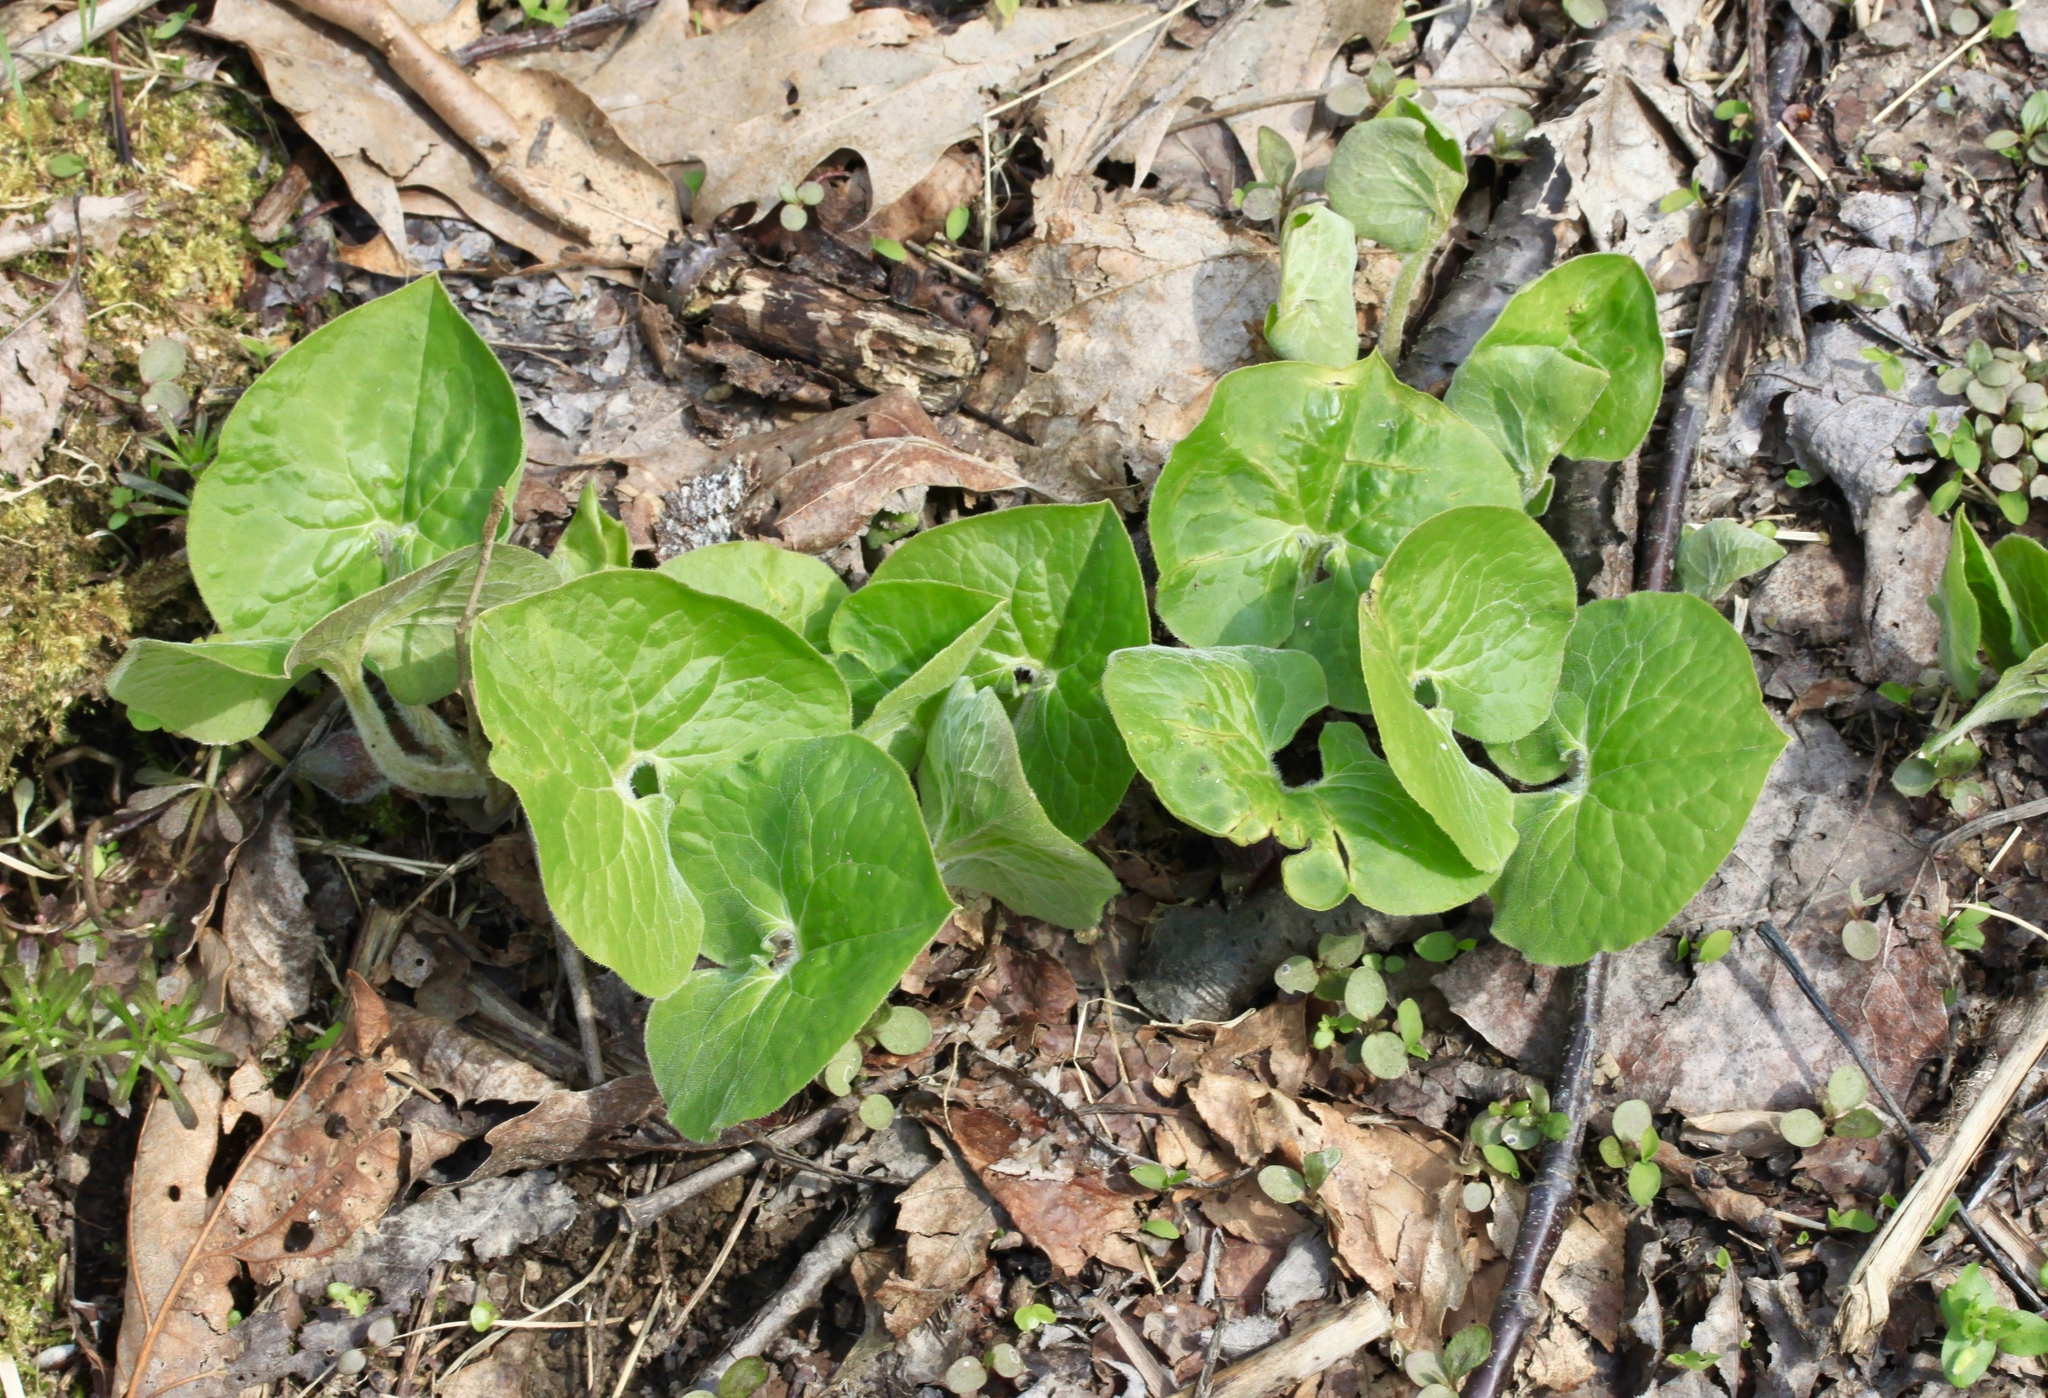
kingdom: Plantae
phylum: Tracheophyta
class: Magnoliopsida
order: Piperales
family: Aristolochiaceae
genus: Asarum
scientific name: Asarum canadense
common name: Wild ginger
